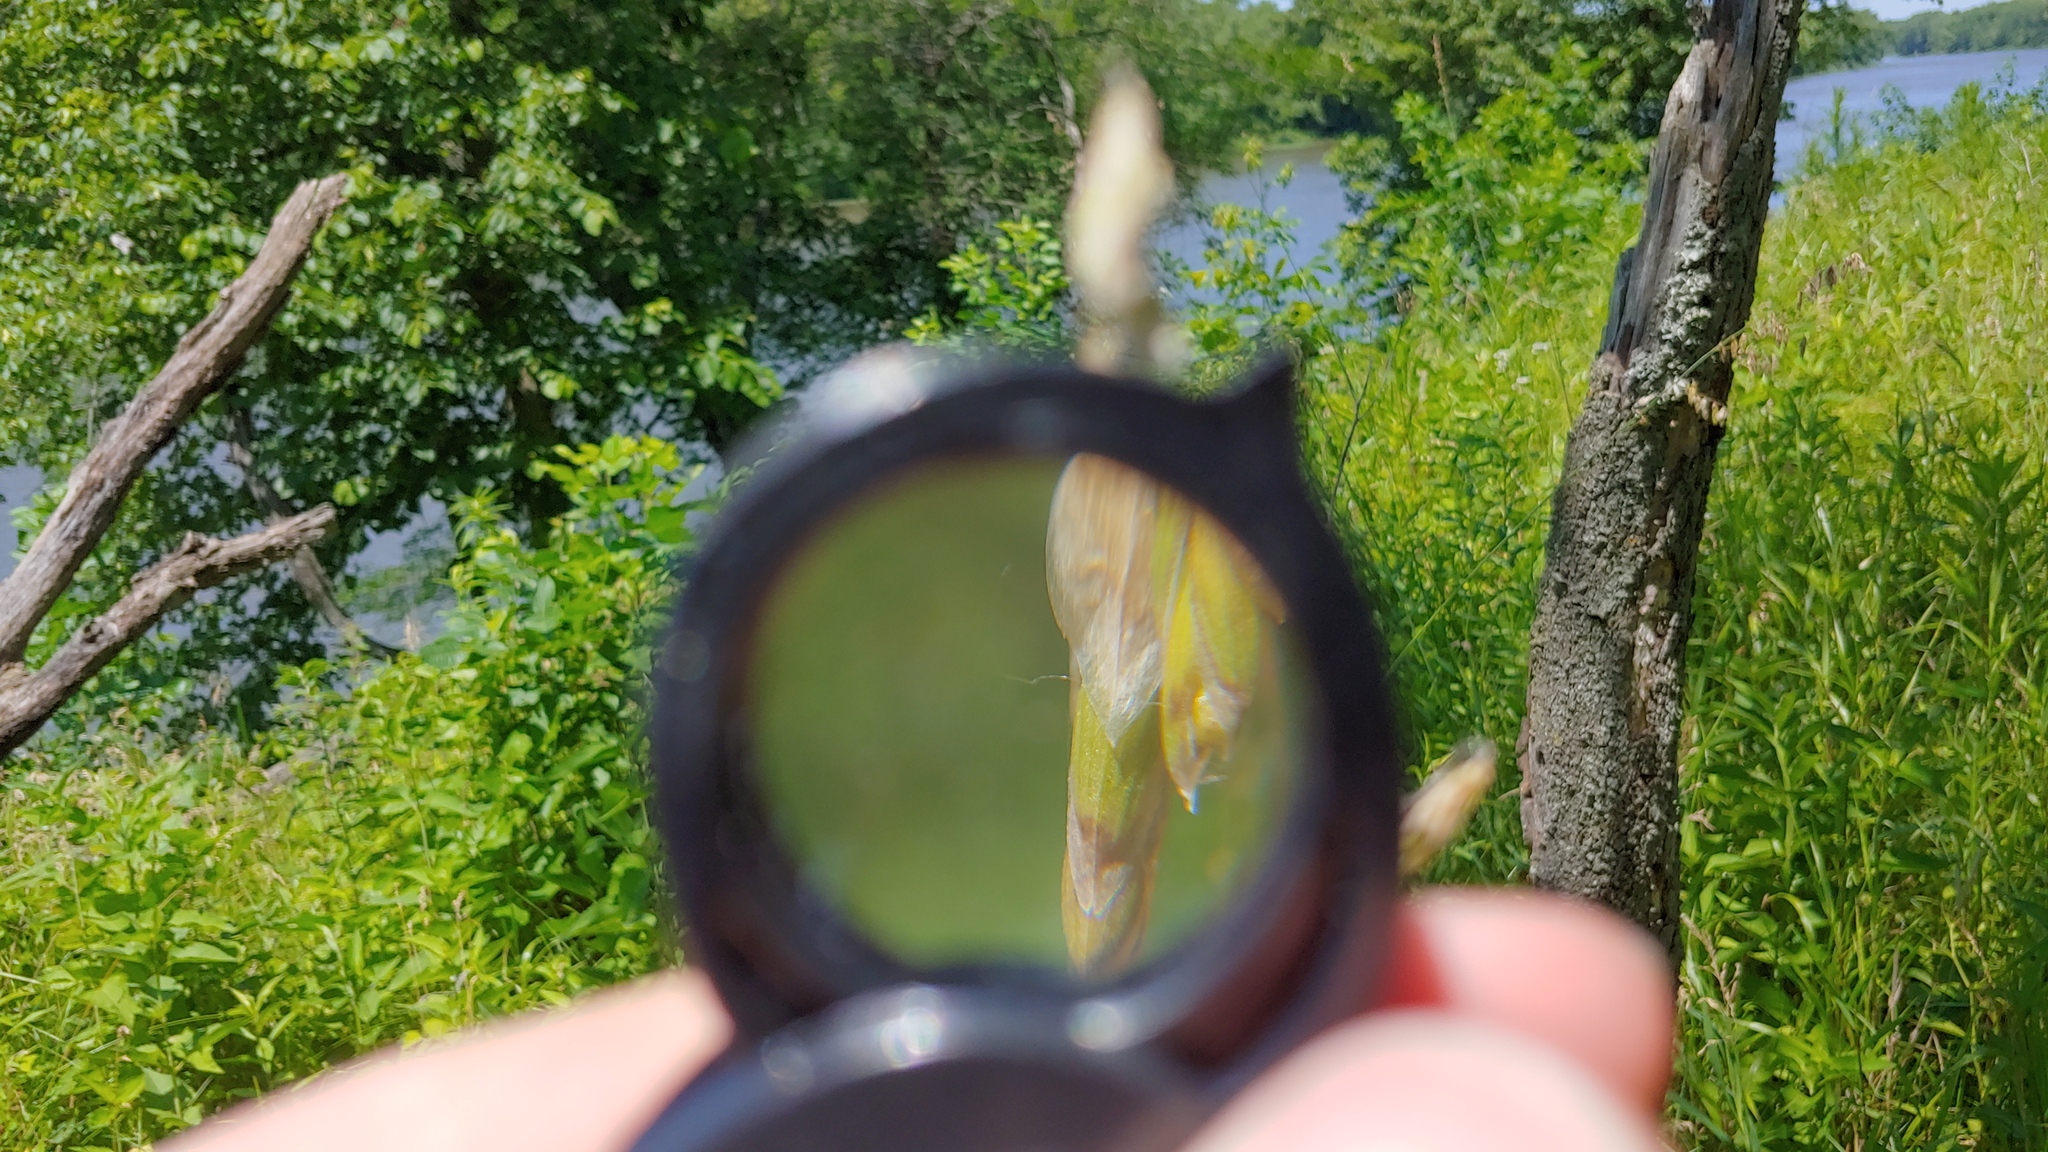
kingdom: Plantae
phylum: Tracheophyta
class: Liliopsida
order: Poales
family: Poaceae
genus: Melica
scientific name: Melica nitens
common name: Three-flower melic
